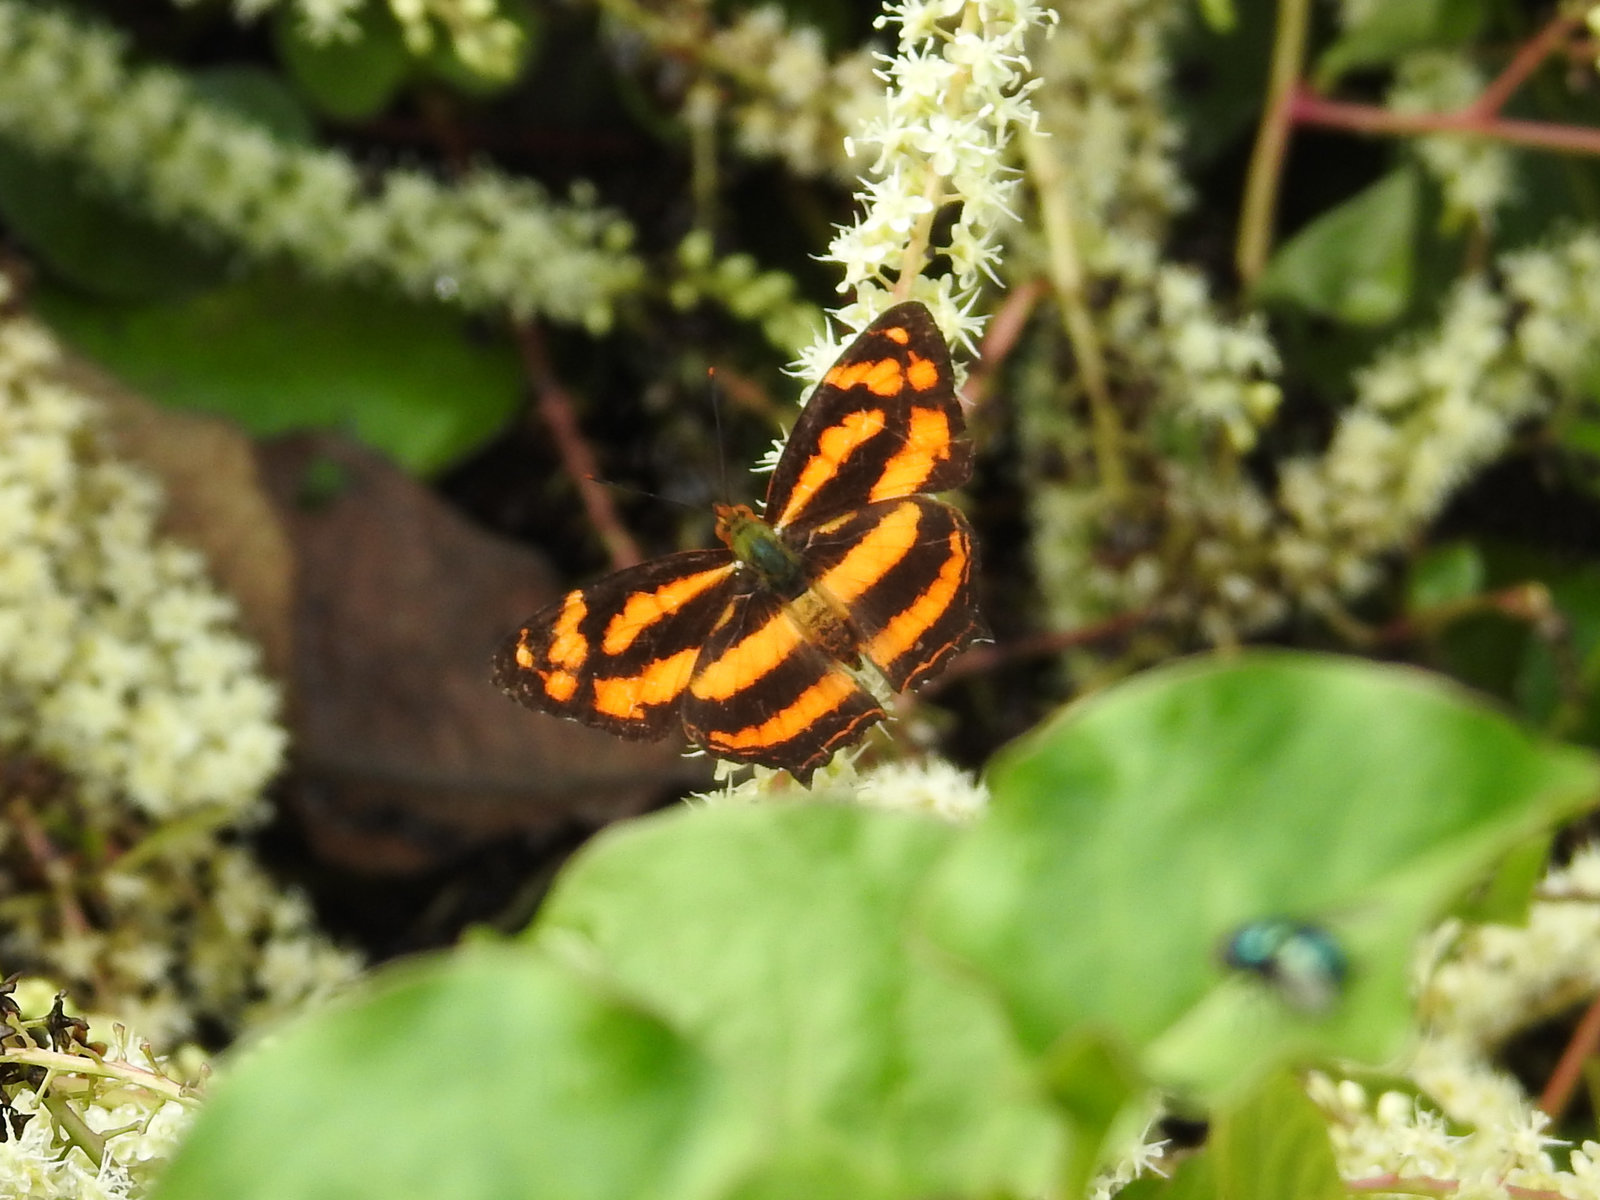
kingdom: Animalia
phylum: Arthropoda
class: Insecta
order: Lepidoptera
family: Nymphalidae
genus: Symbrenthia
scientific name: Symbrenthia hypselis
